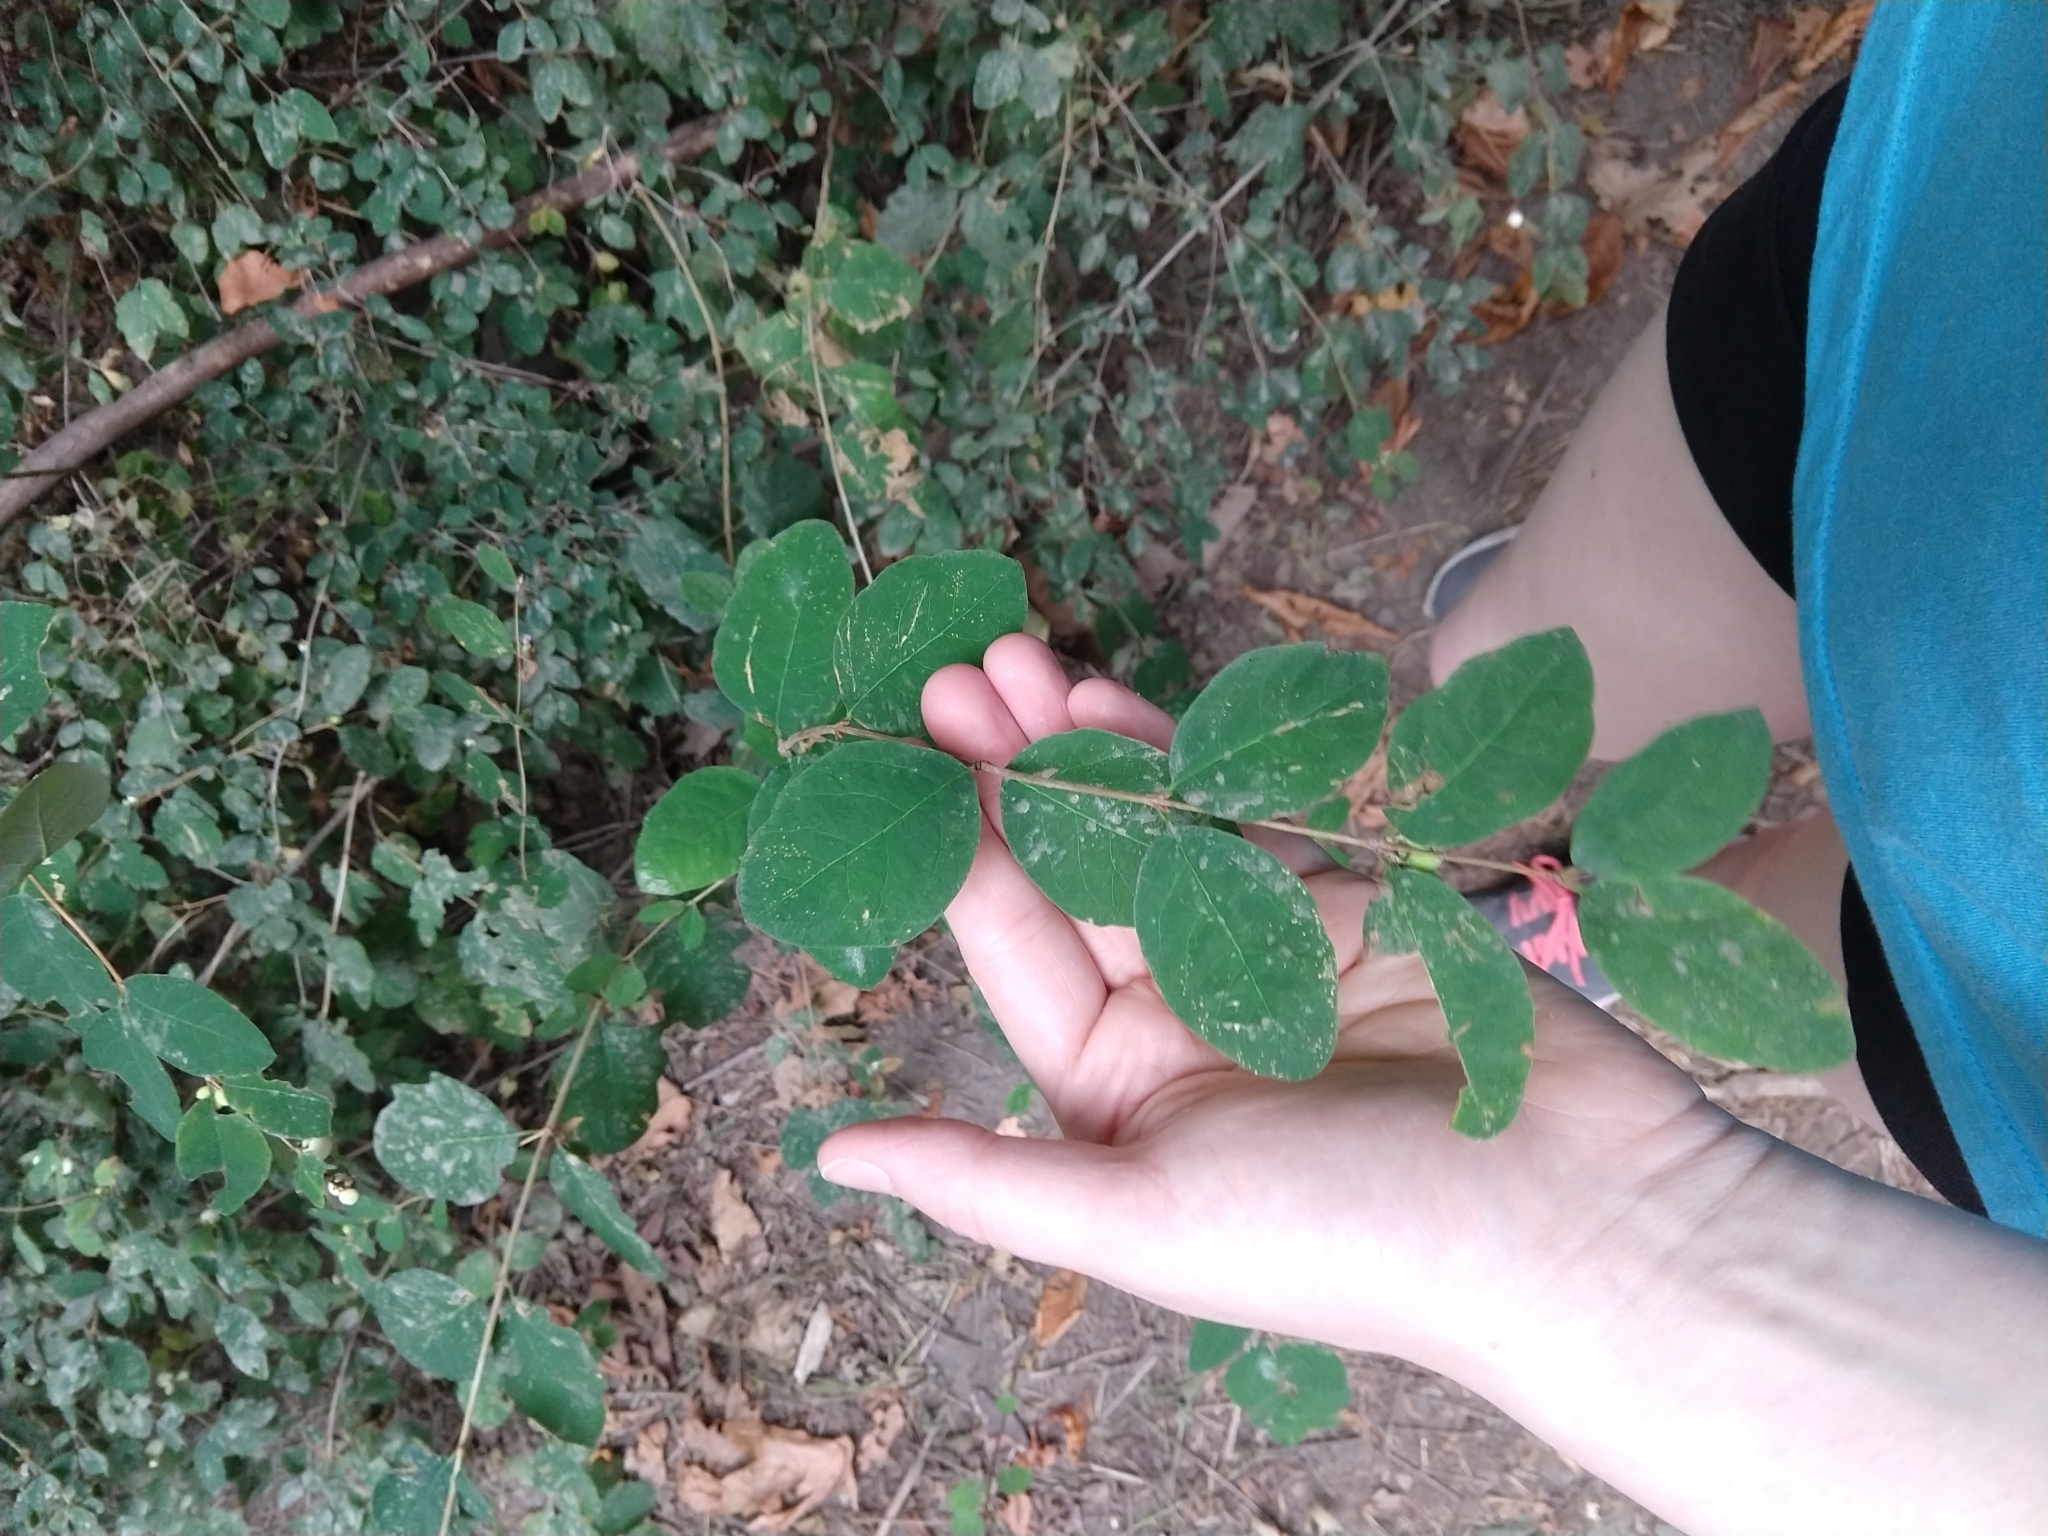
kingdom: Plantae
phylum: Tracheophyta
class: Magnoliopsida
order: Dipsacales
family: Caprifoliaceae
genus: Symphoricarpos
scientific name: Symphoricarpos albus
